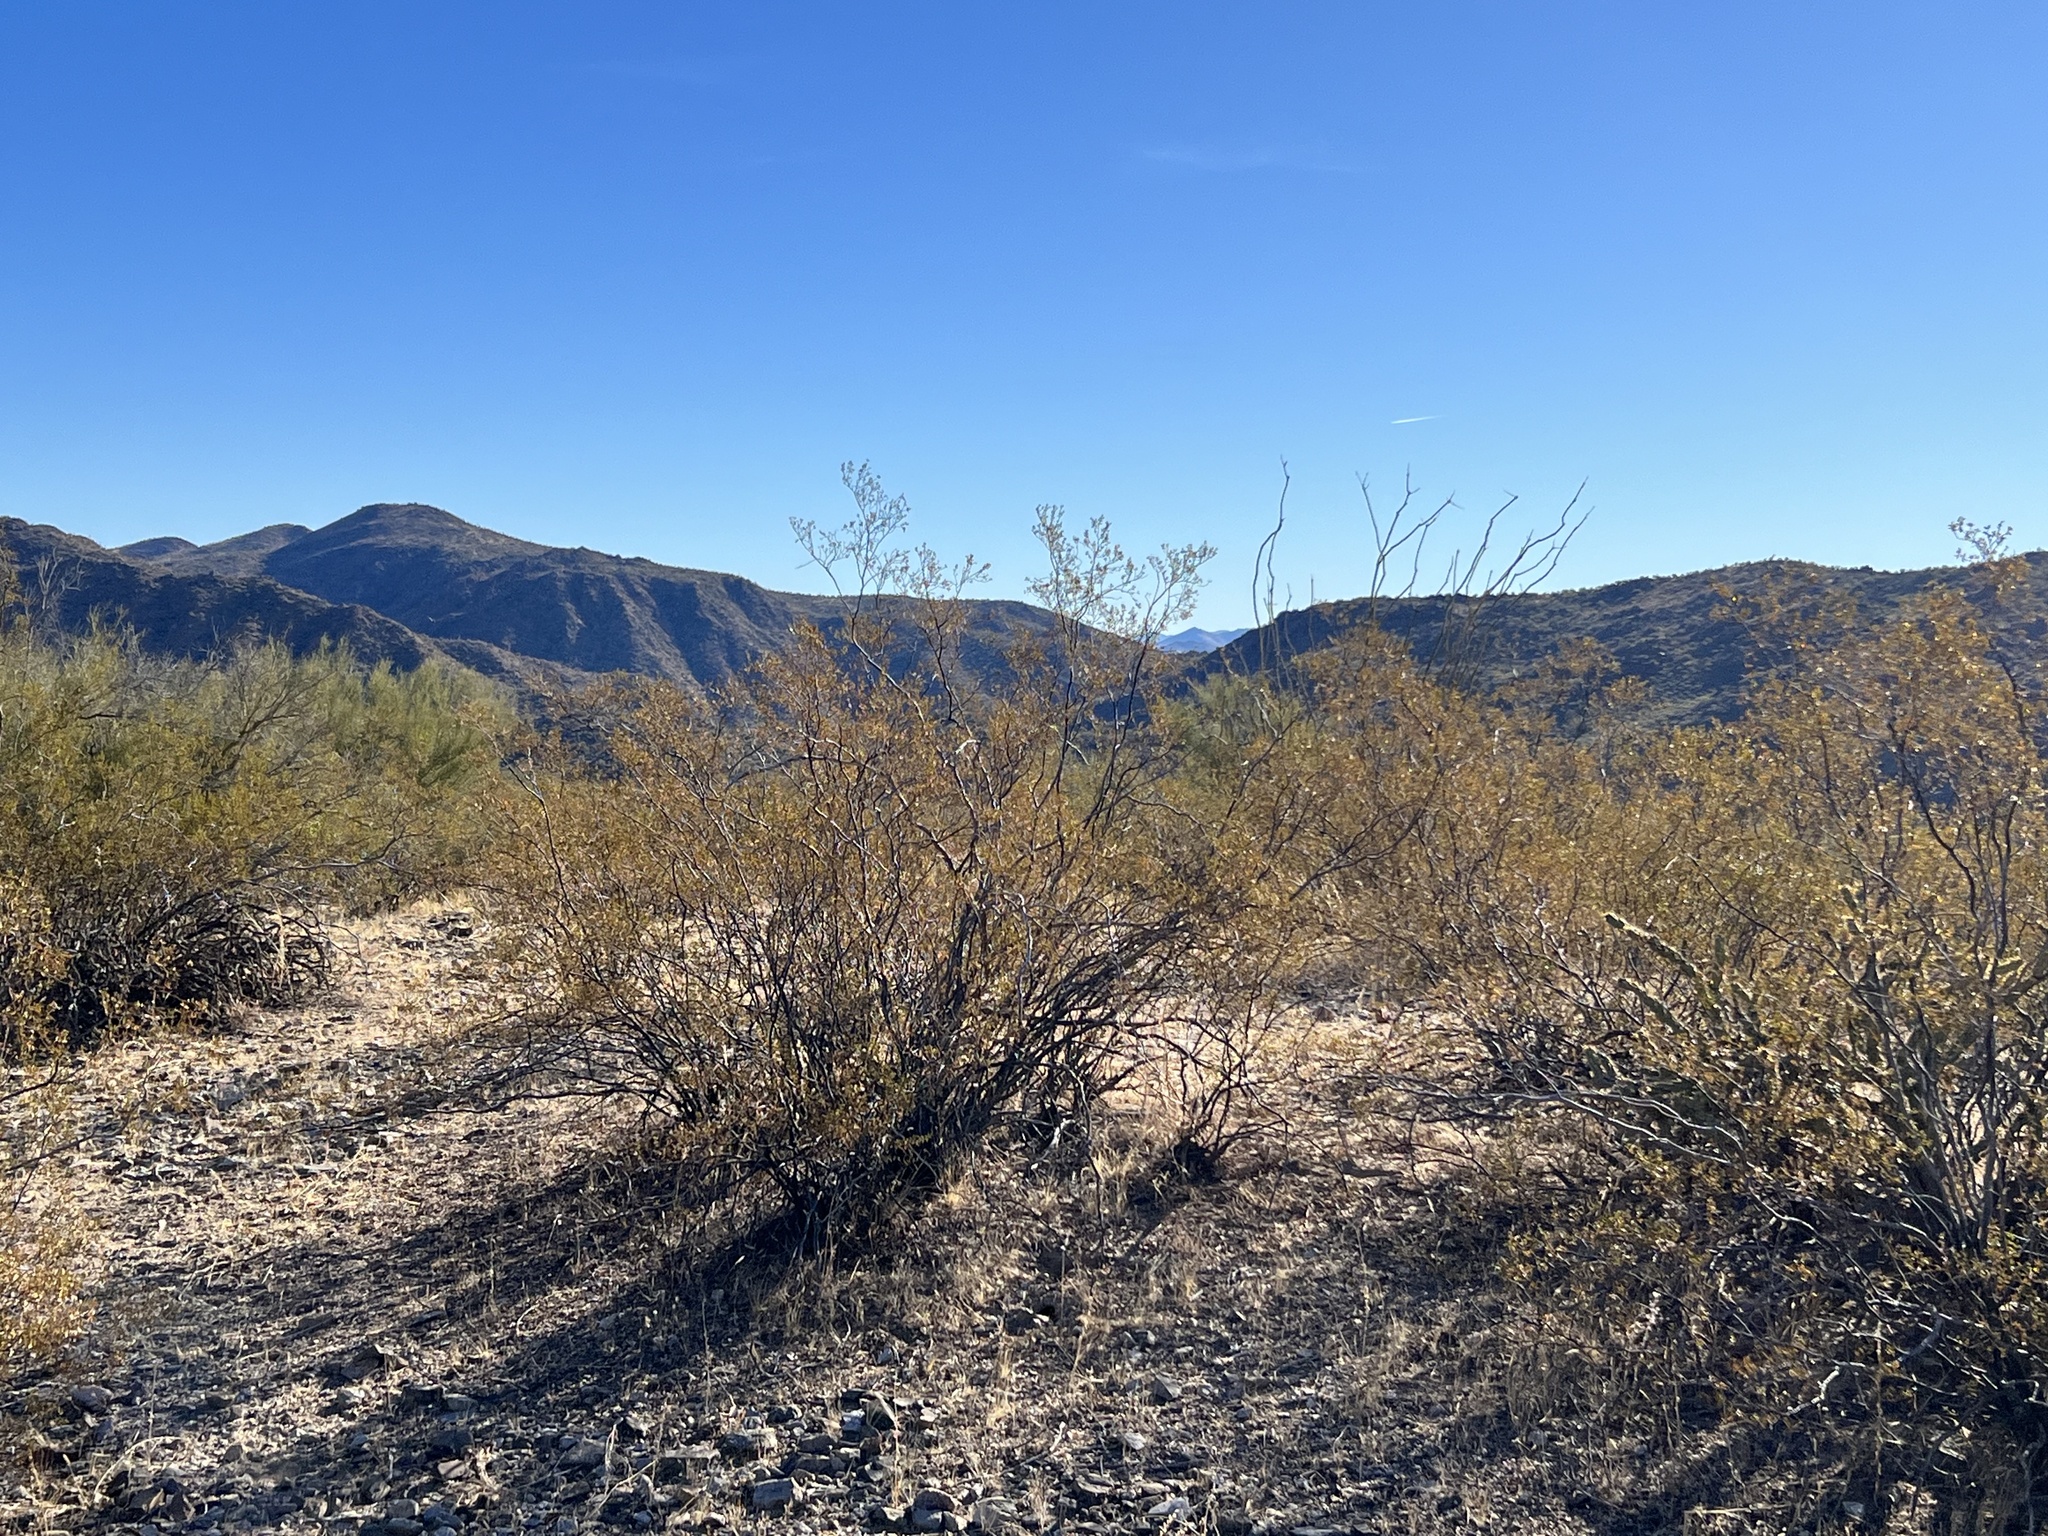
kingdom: Plantae
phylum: Tracheophyta
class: Magnoliopsida
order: Zygophyllales
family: Zygophyllaceae
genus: Larrea
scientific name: Larrea tridentata
